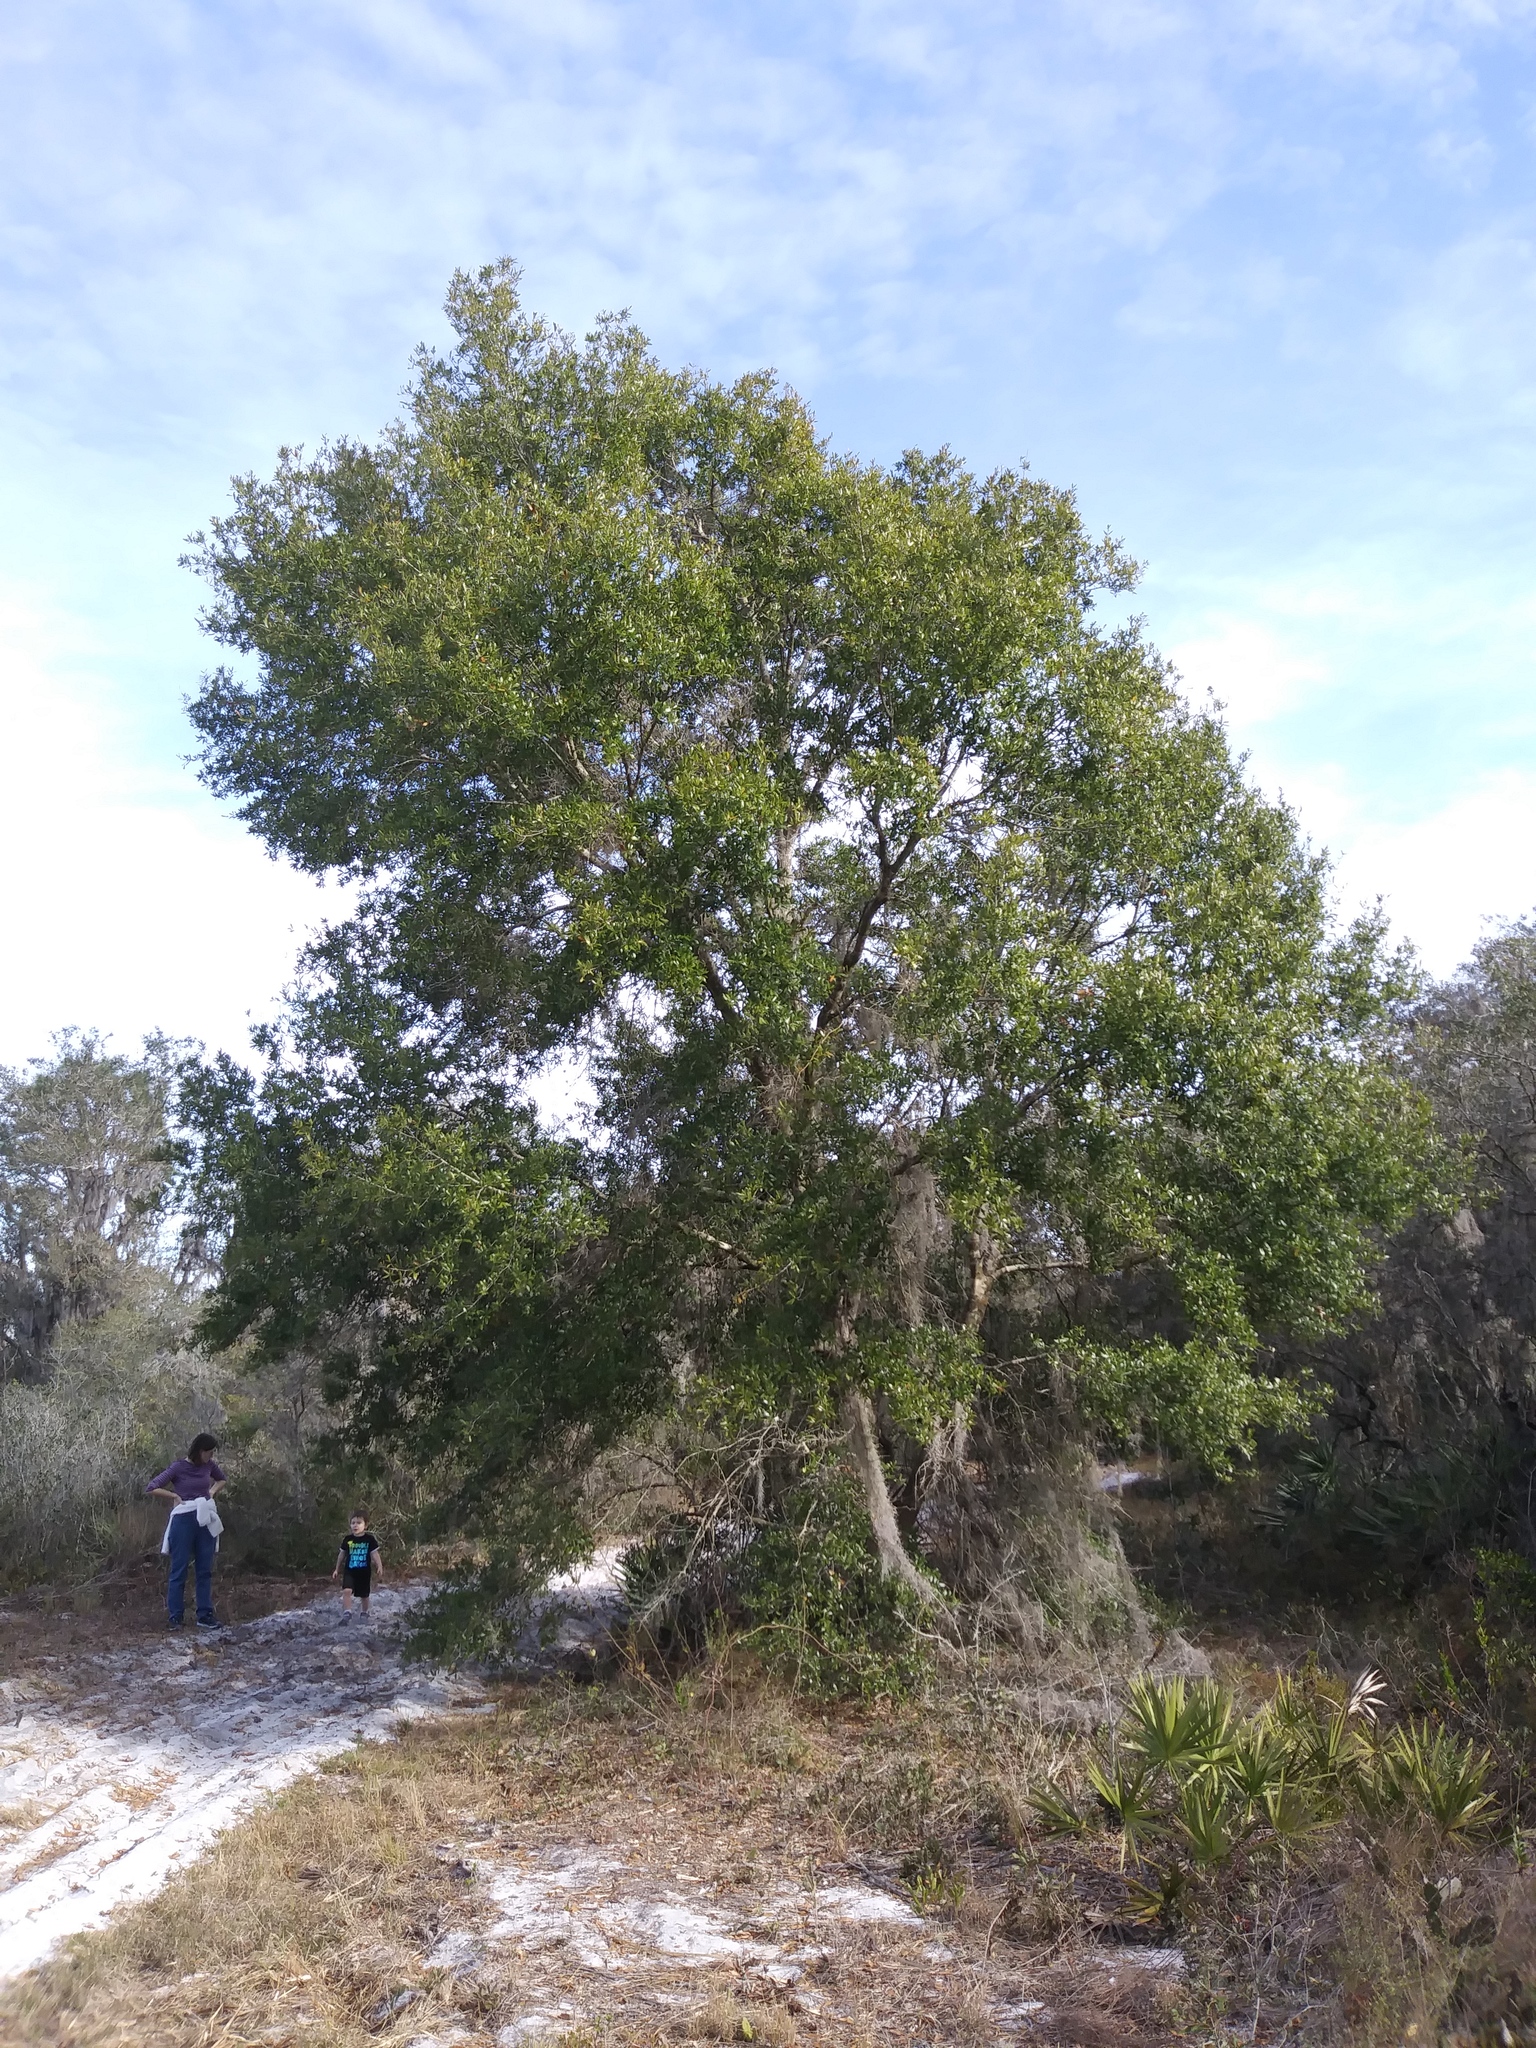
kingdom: Plantae
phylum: Tracheophyta
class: Magnoliopsida
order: Fagales
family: Fagaceae
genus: Quercus
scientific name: Quercus hemisphaerica
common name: Darlington oak
